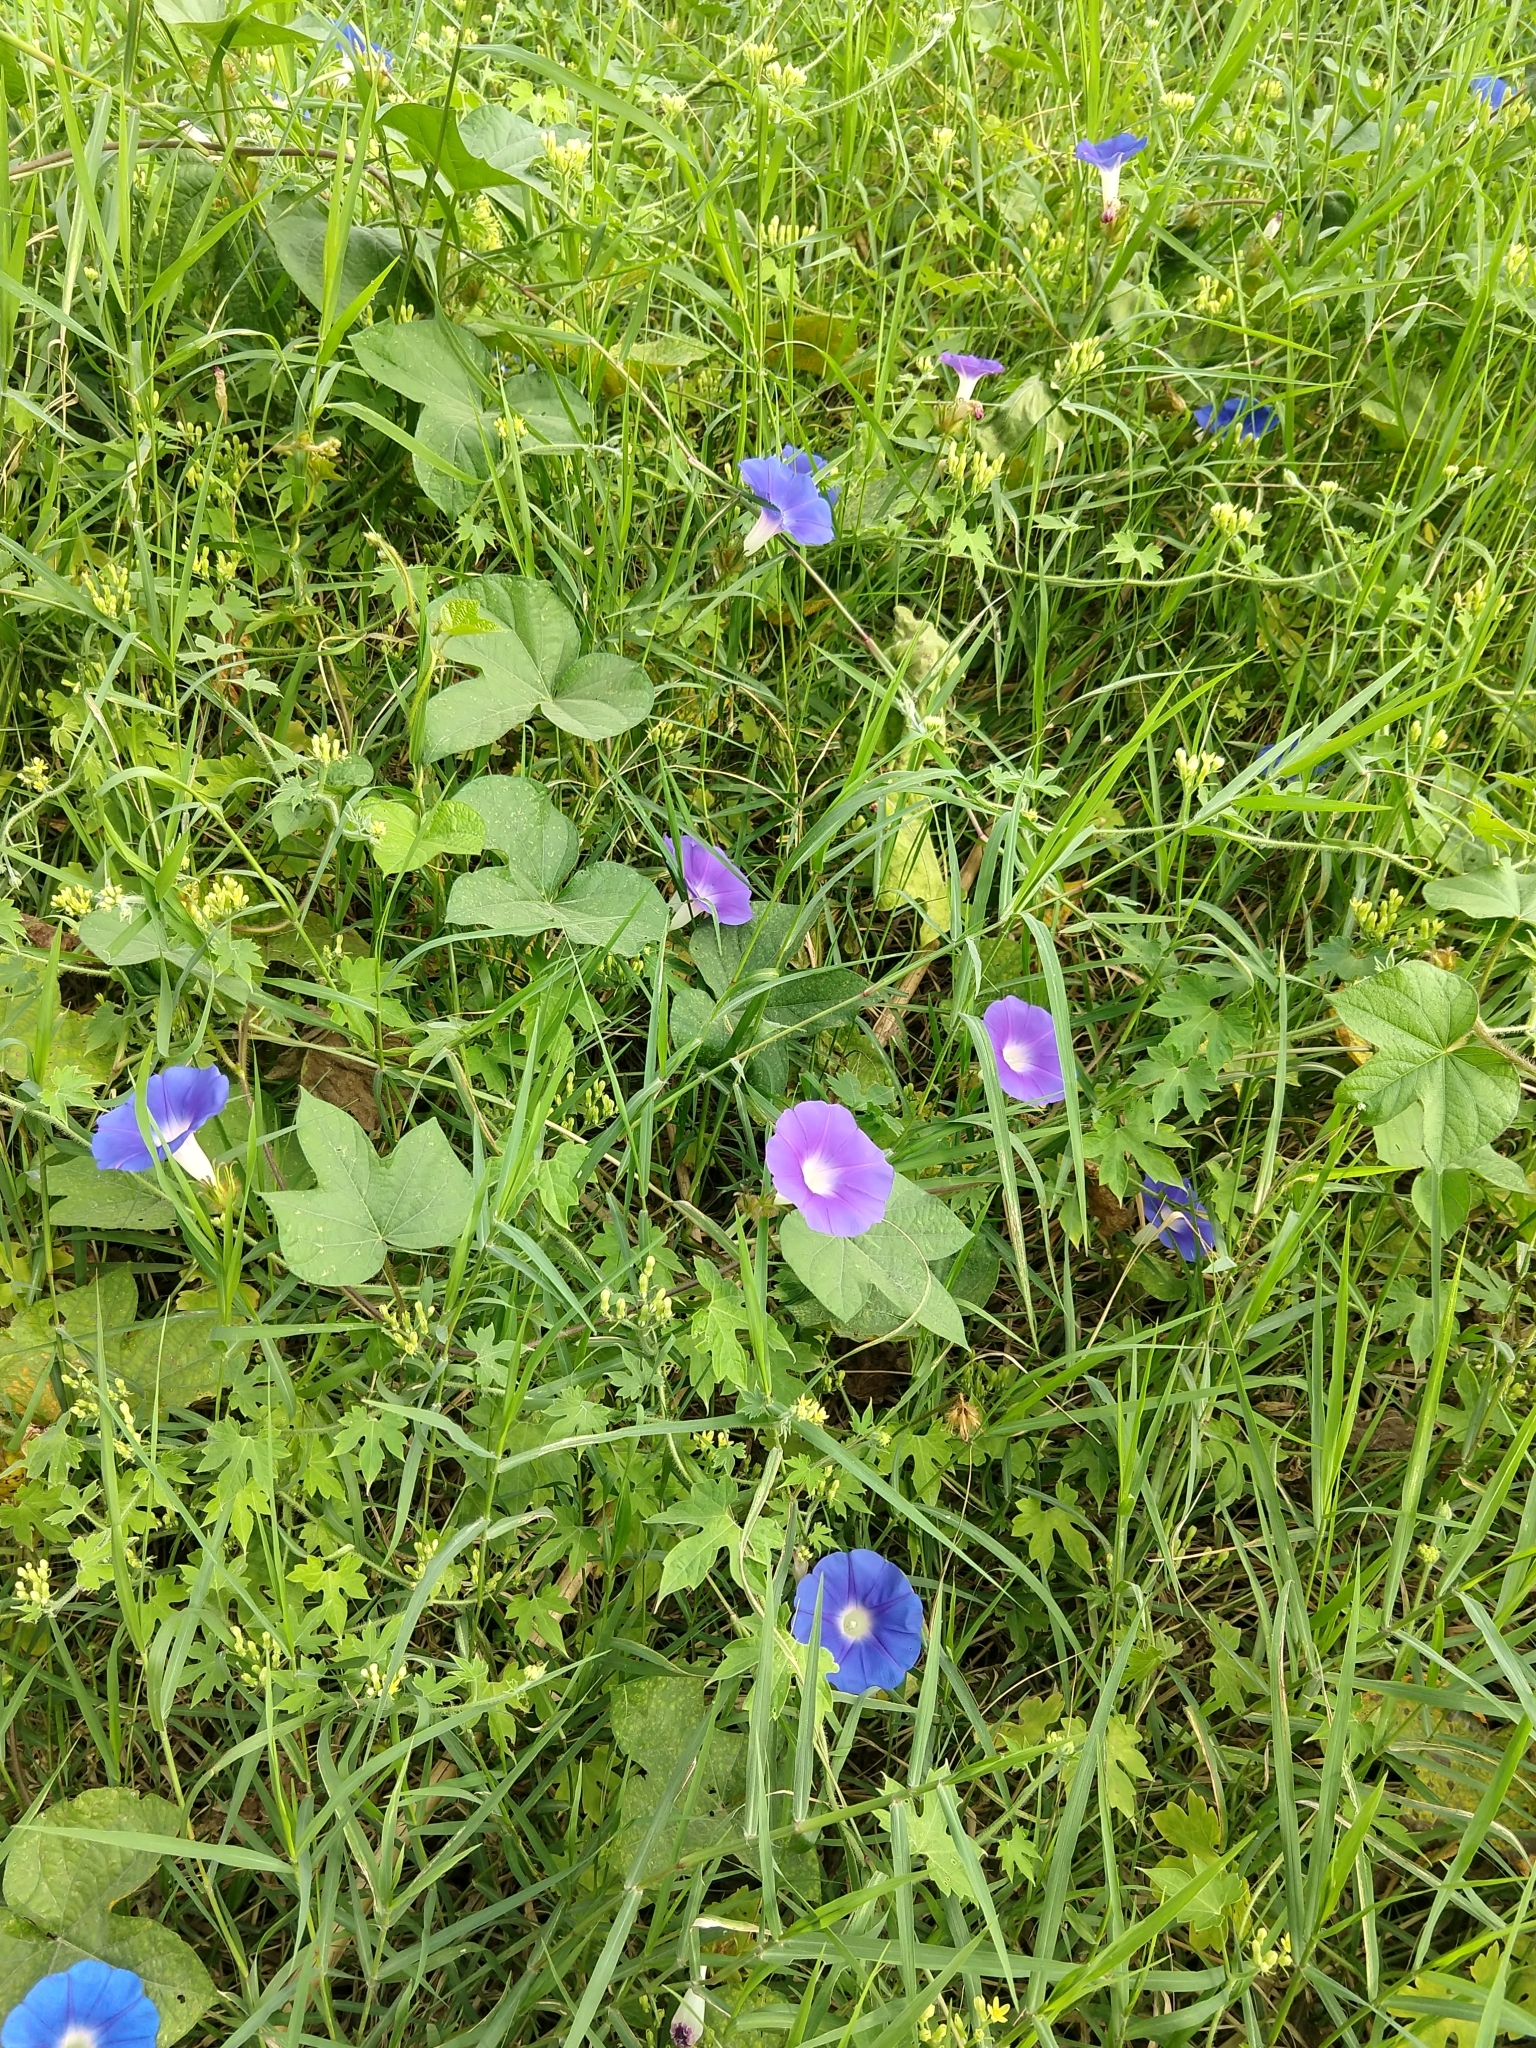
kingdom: Plantae
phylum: Tracheophyta
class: Magnoliopsida
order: Solanales
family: Convolvulaceae
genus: Ipomoea
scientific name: Ipomoea hederacea
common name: Ivy-leaved morning-glory
